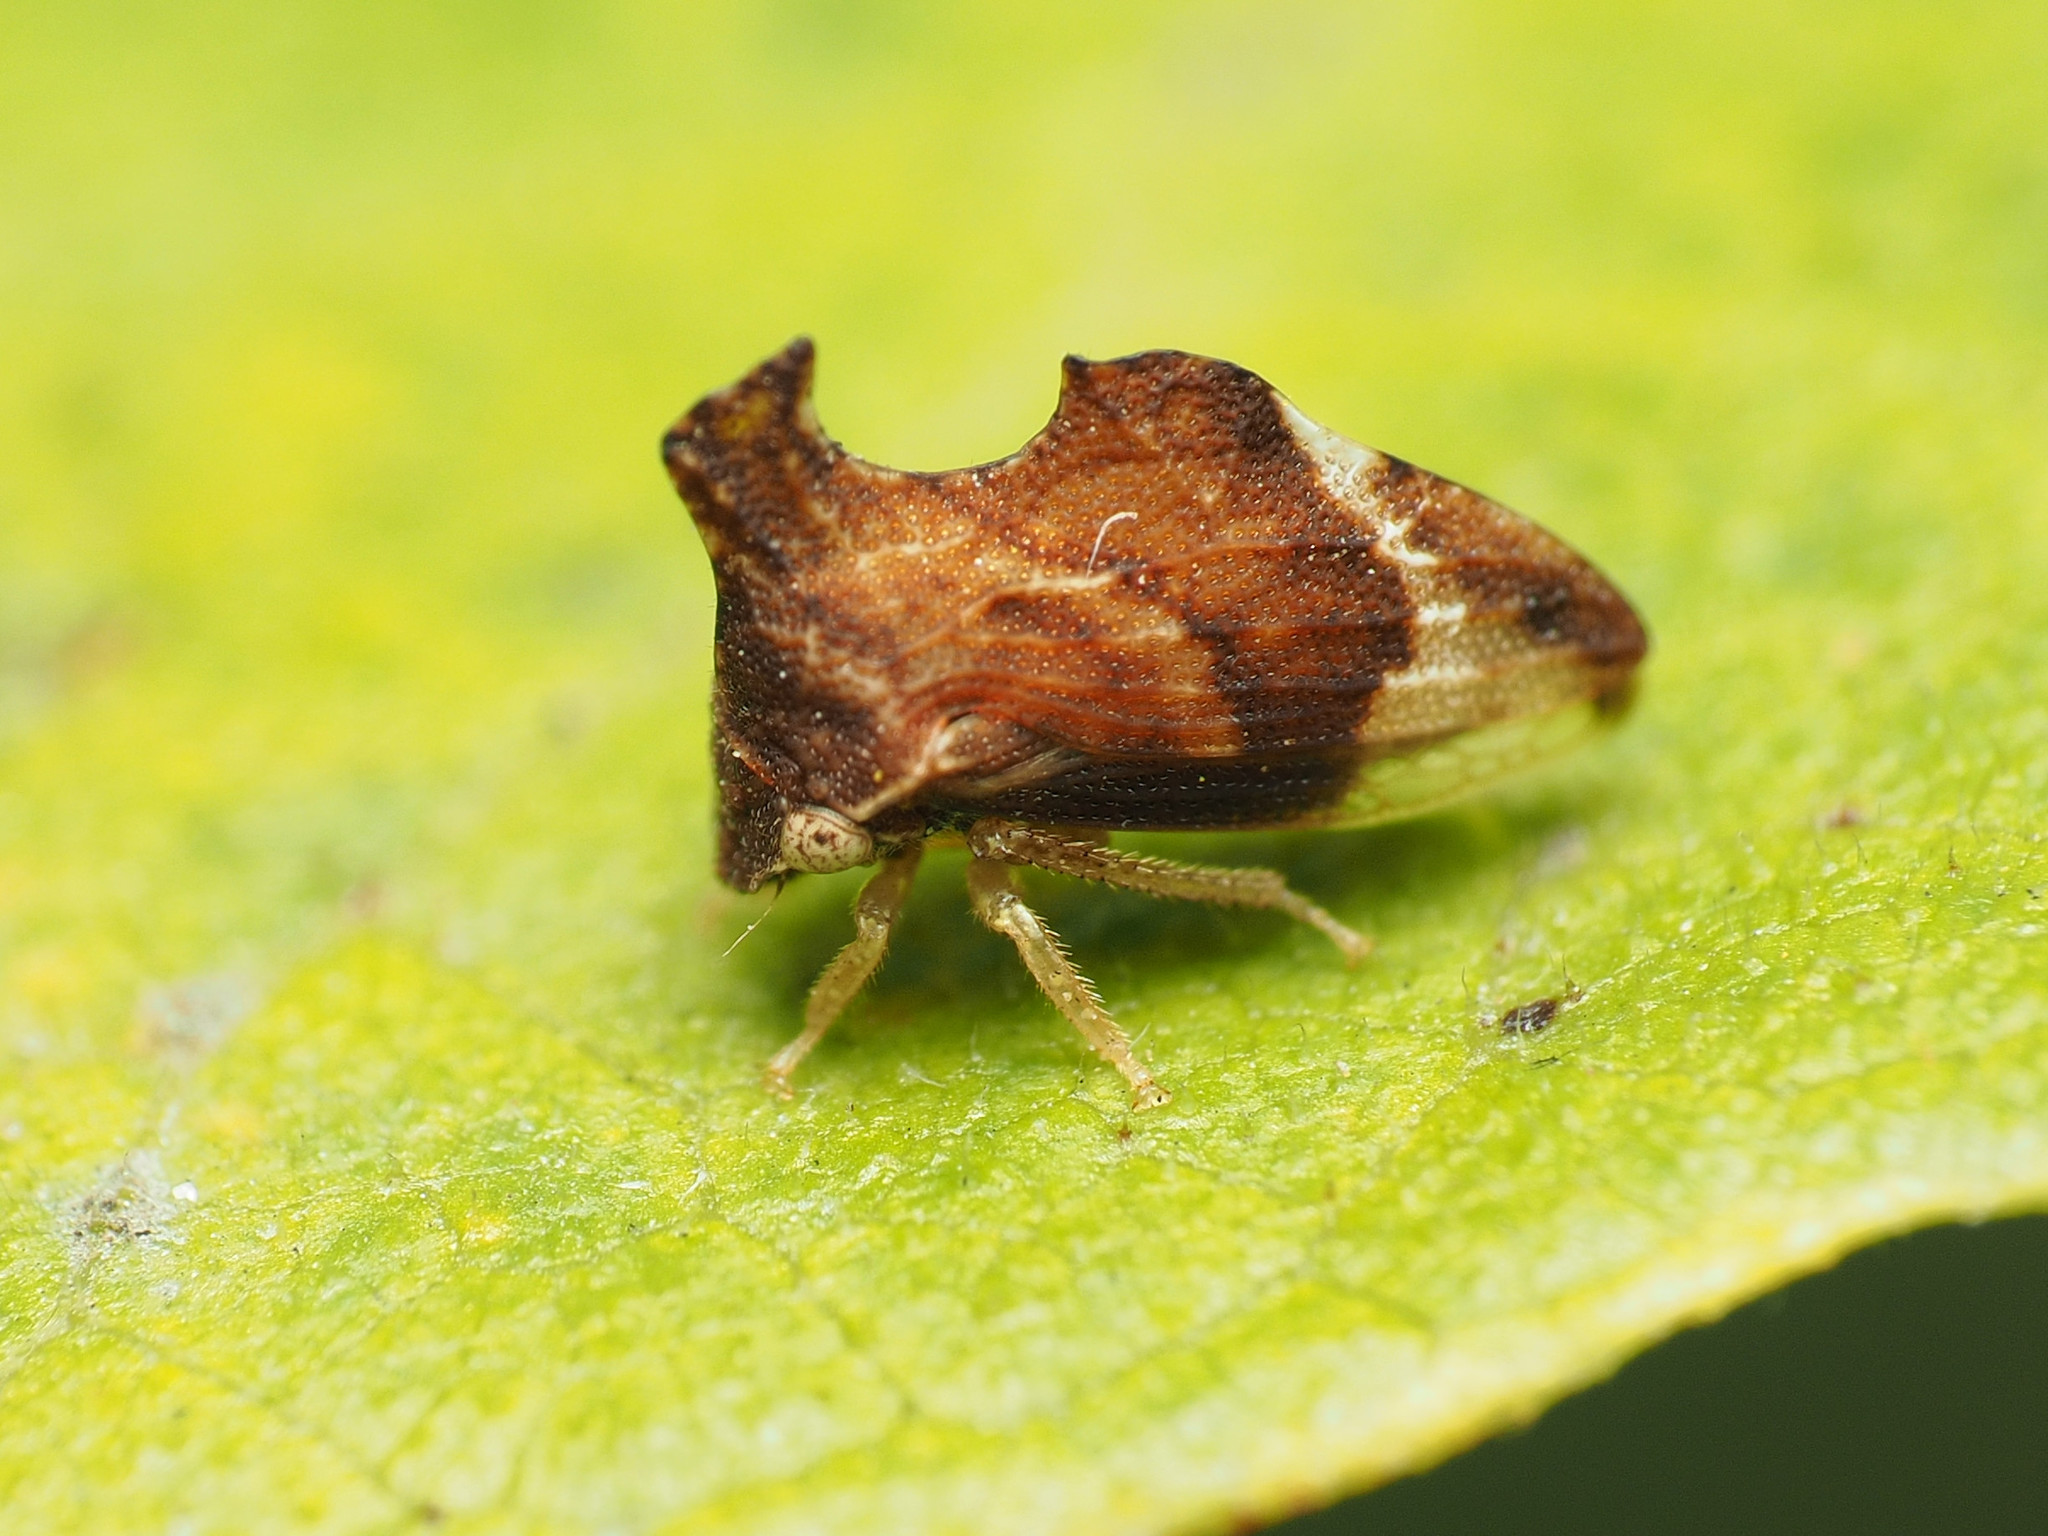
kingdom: Animalia
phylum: Arthropoda
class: Insecta
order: Hemiptera
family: Membracidae
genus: Entylia
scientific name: Entylia carinata
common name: Keeled treehopper
